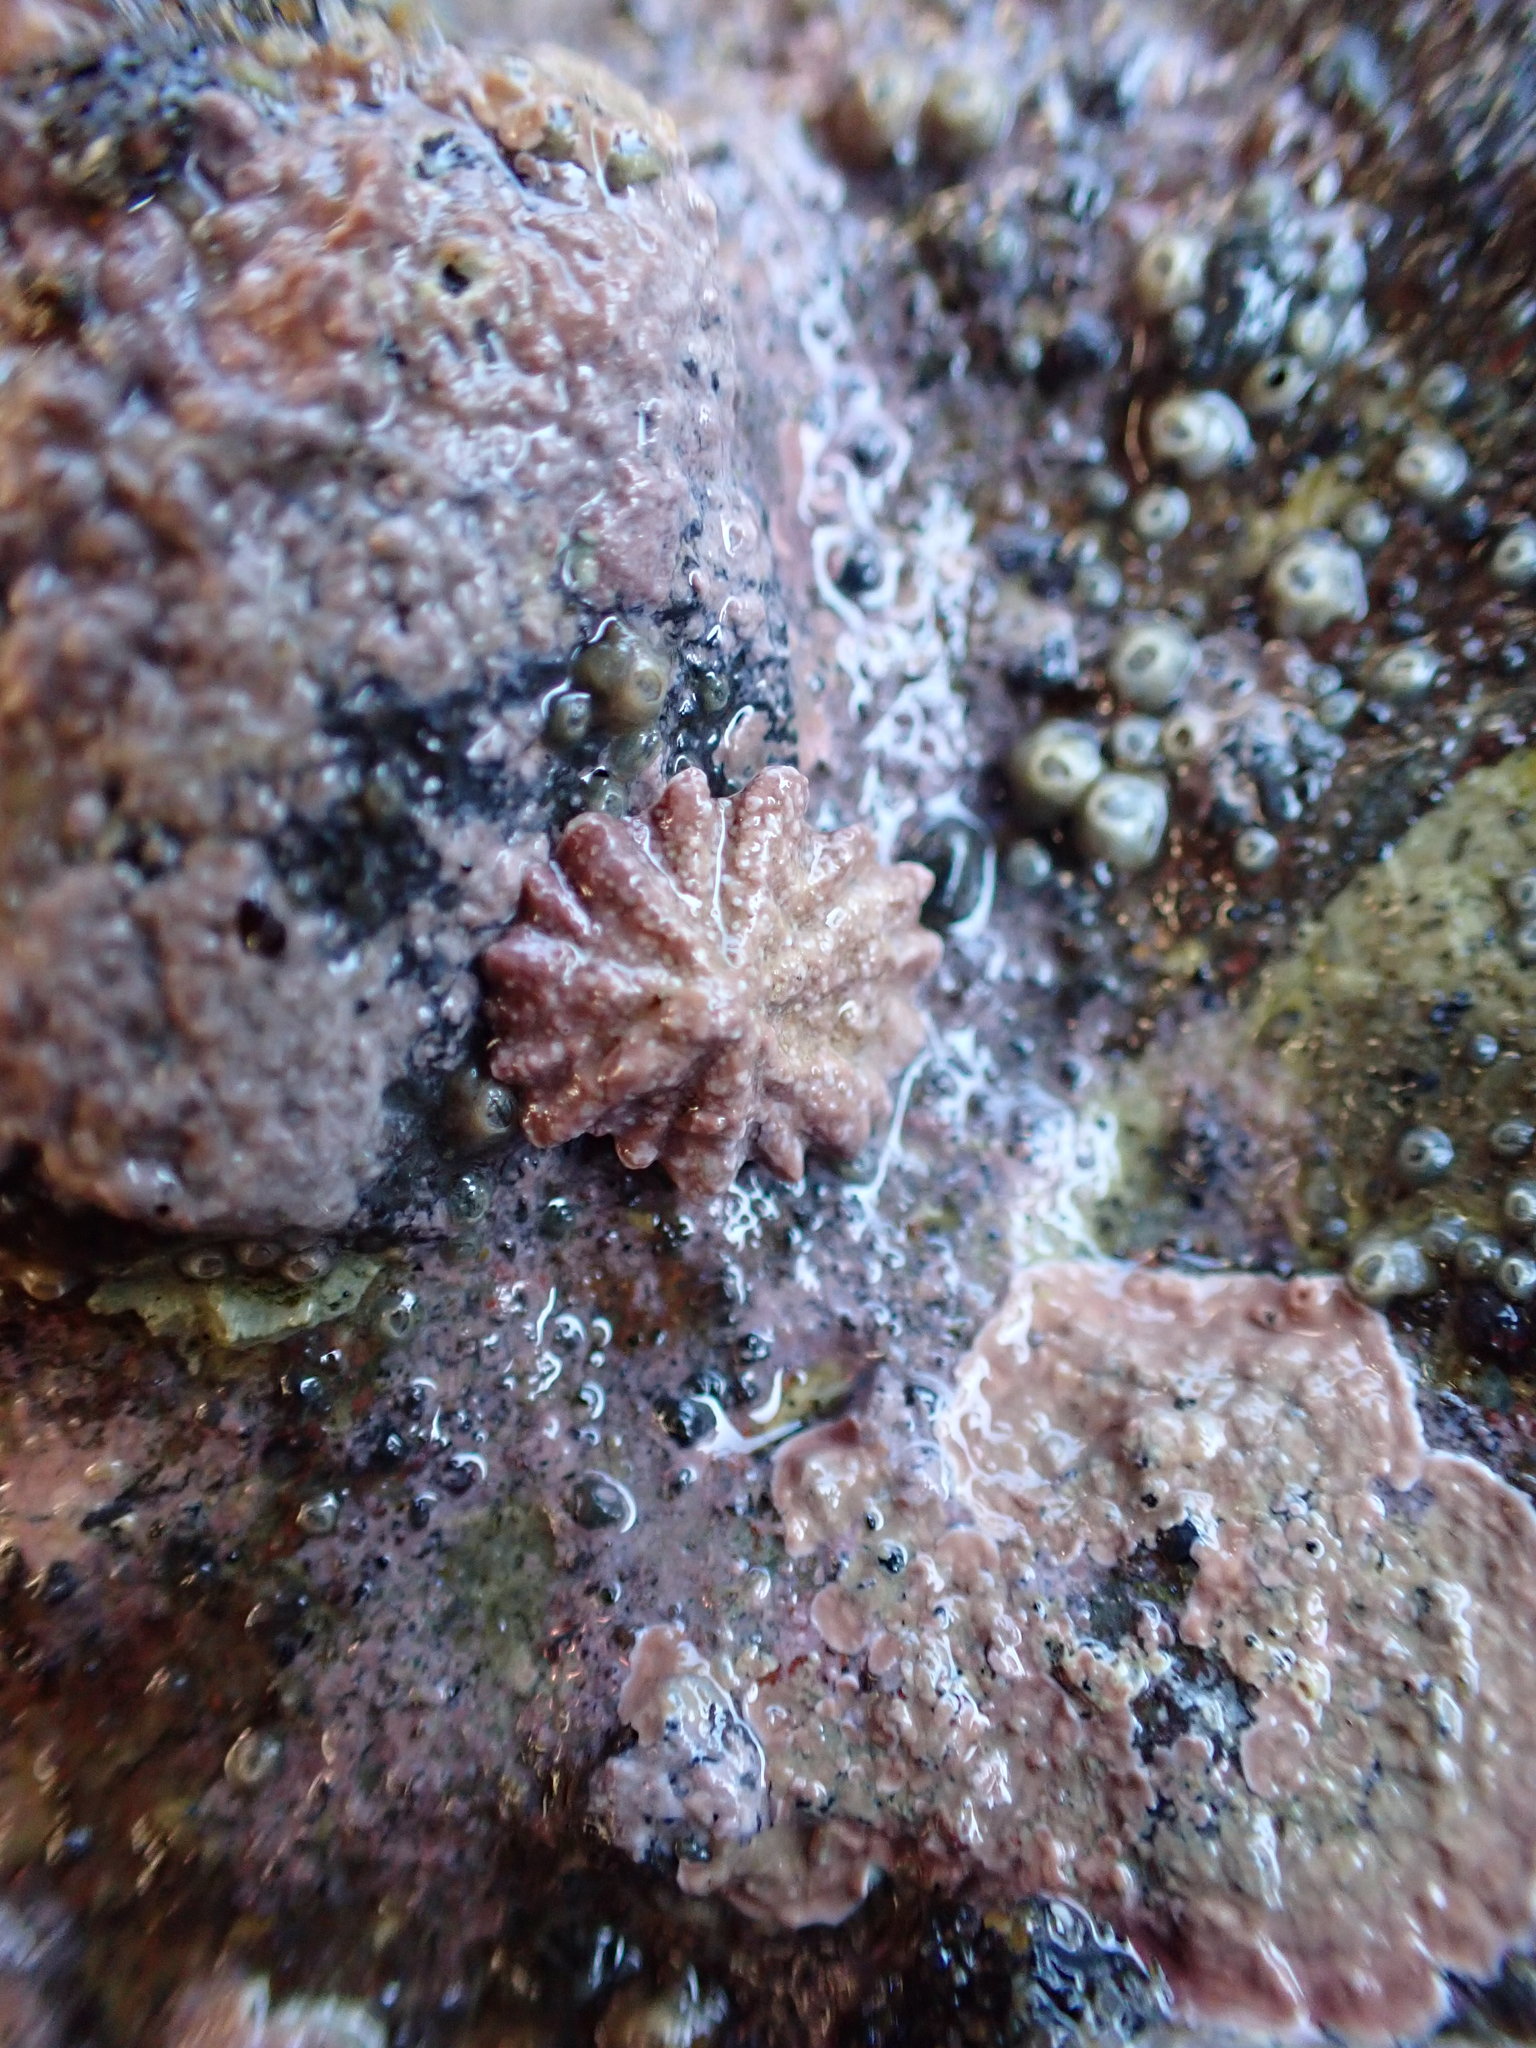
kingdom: Animalia
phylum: Mollusca
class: Gastropoda
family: Lottiidae
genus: Patelloida
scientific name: Patelloida corticata
